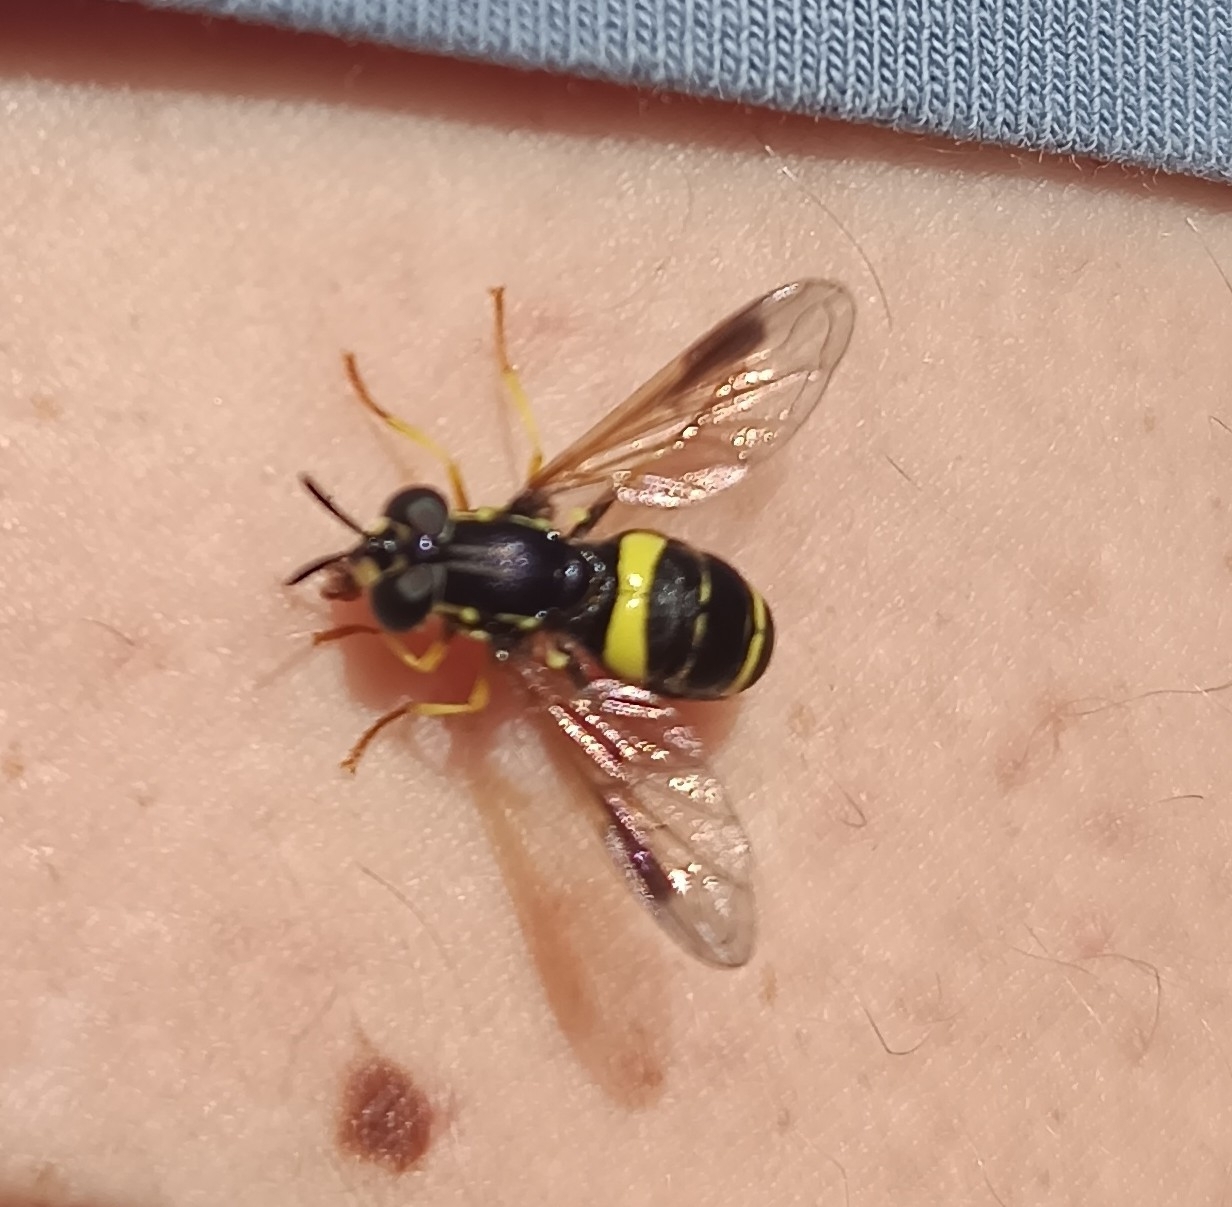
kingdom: Animalia
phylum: Arthropoda
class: Insecta
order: Diptera
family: Syrphidae
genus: Chrysotoxum
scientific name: Chrysotoxum bicincta
